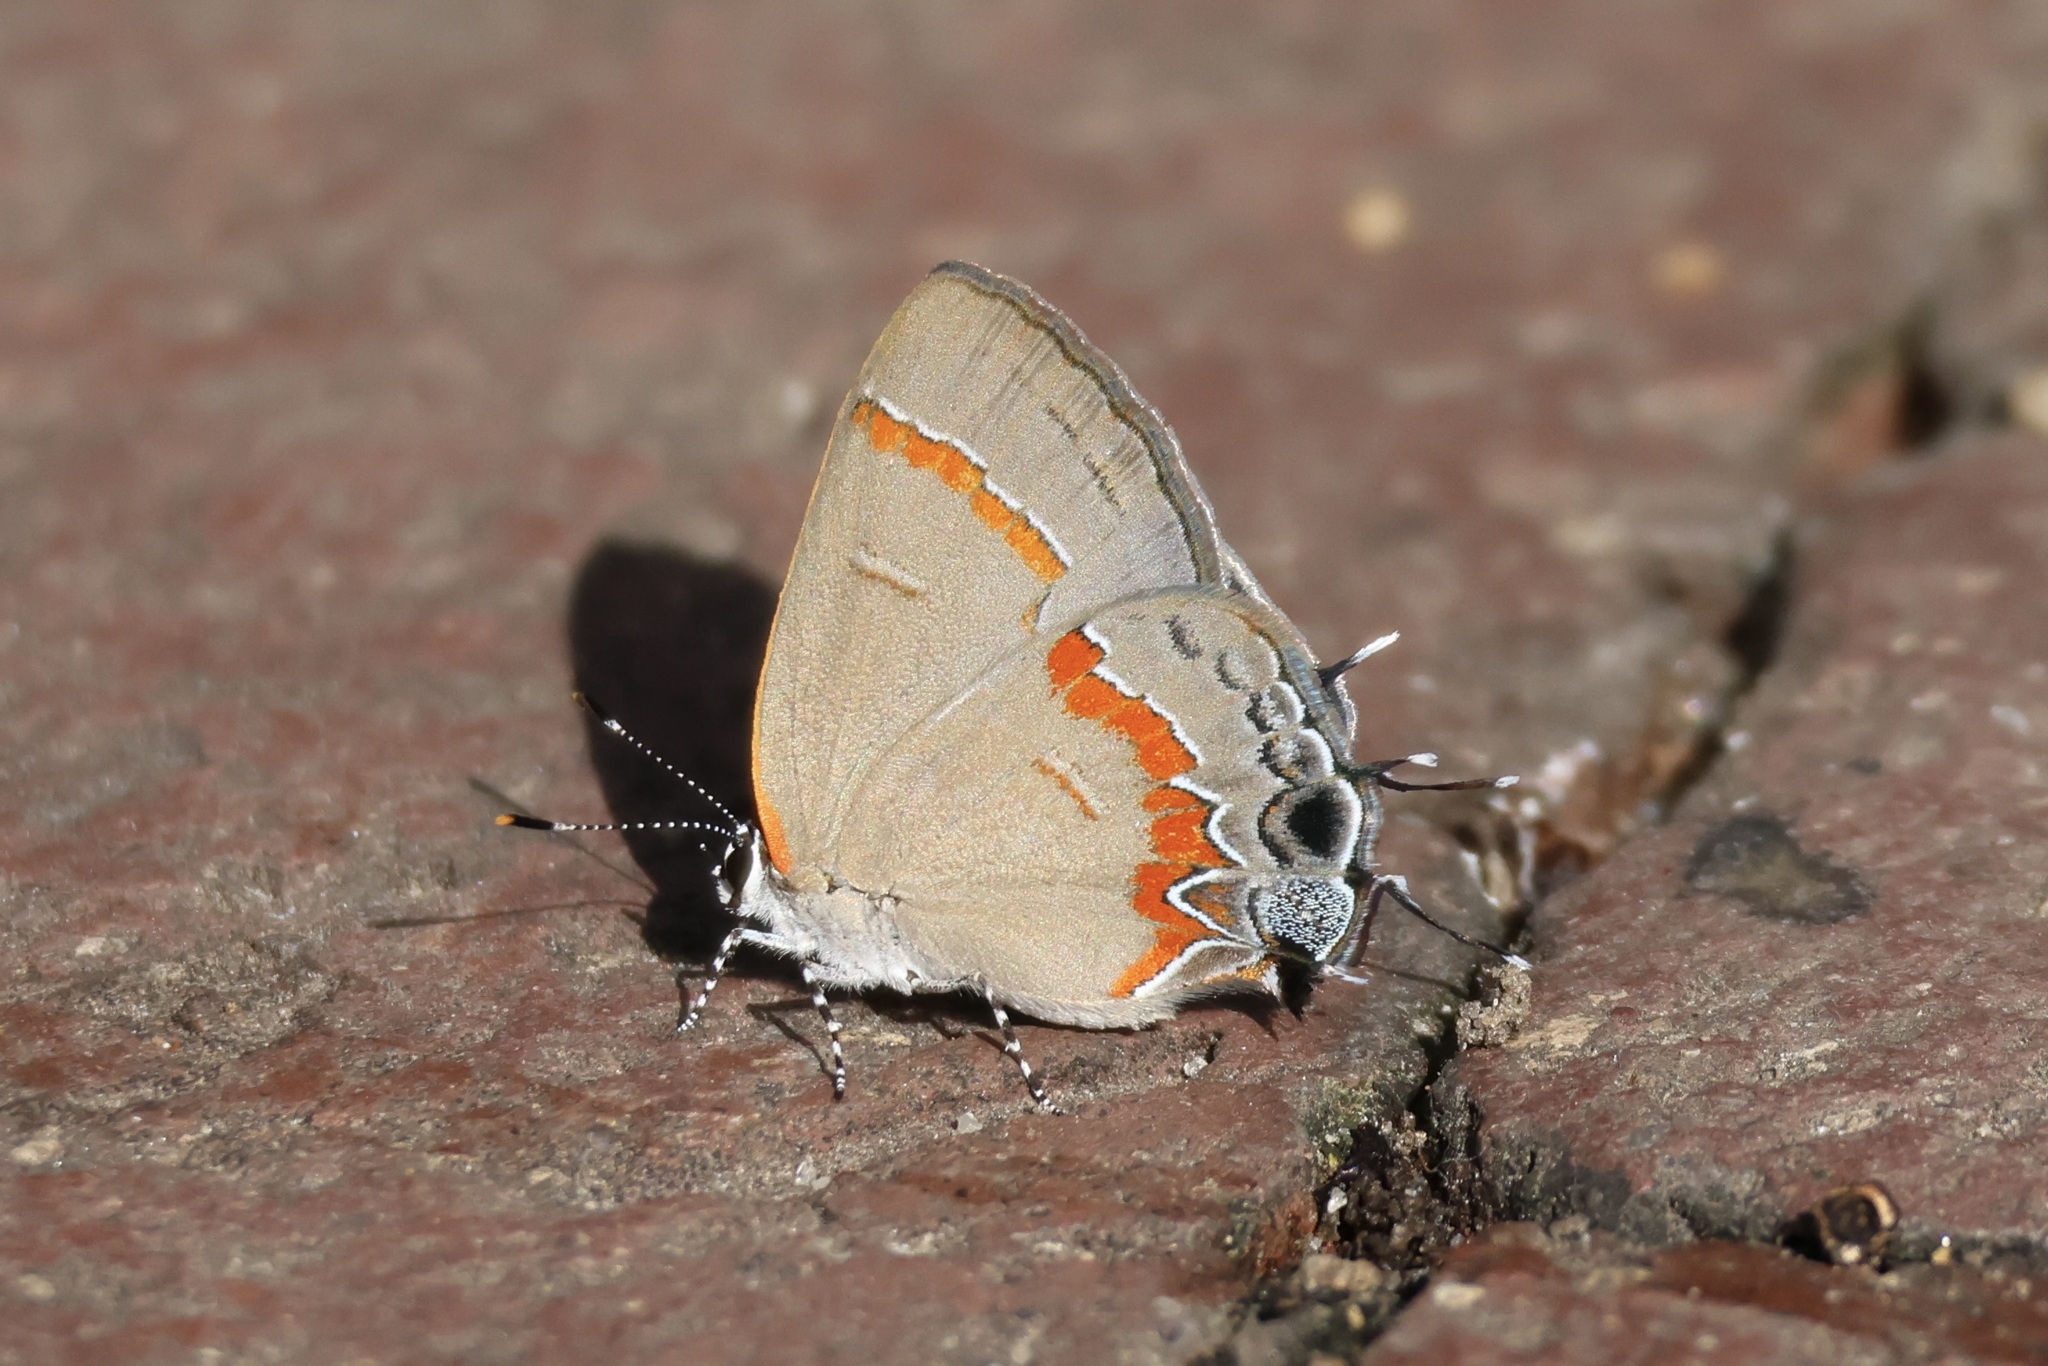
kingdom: Animalia
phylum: Arthropoda
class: Insecta
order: Lepidoptera
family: Lycaenidae
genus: Calycopis
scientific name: Calycopis cecrops
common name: Red-banded hairstreak
